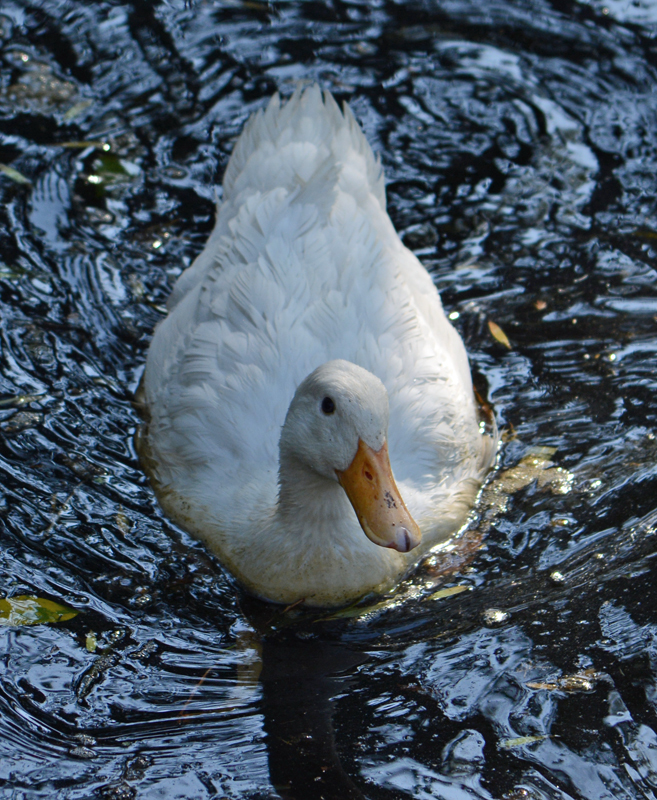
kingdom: Animalia
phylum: Chordata
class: Aves
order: Anseriformes
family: Anatidae
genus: Anas
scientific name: Anas platyrhynchos
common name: Mallard
